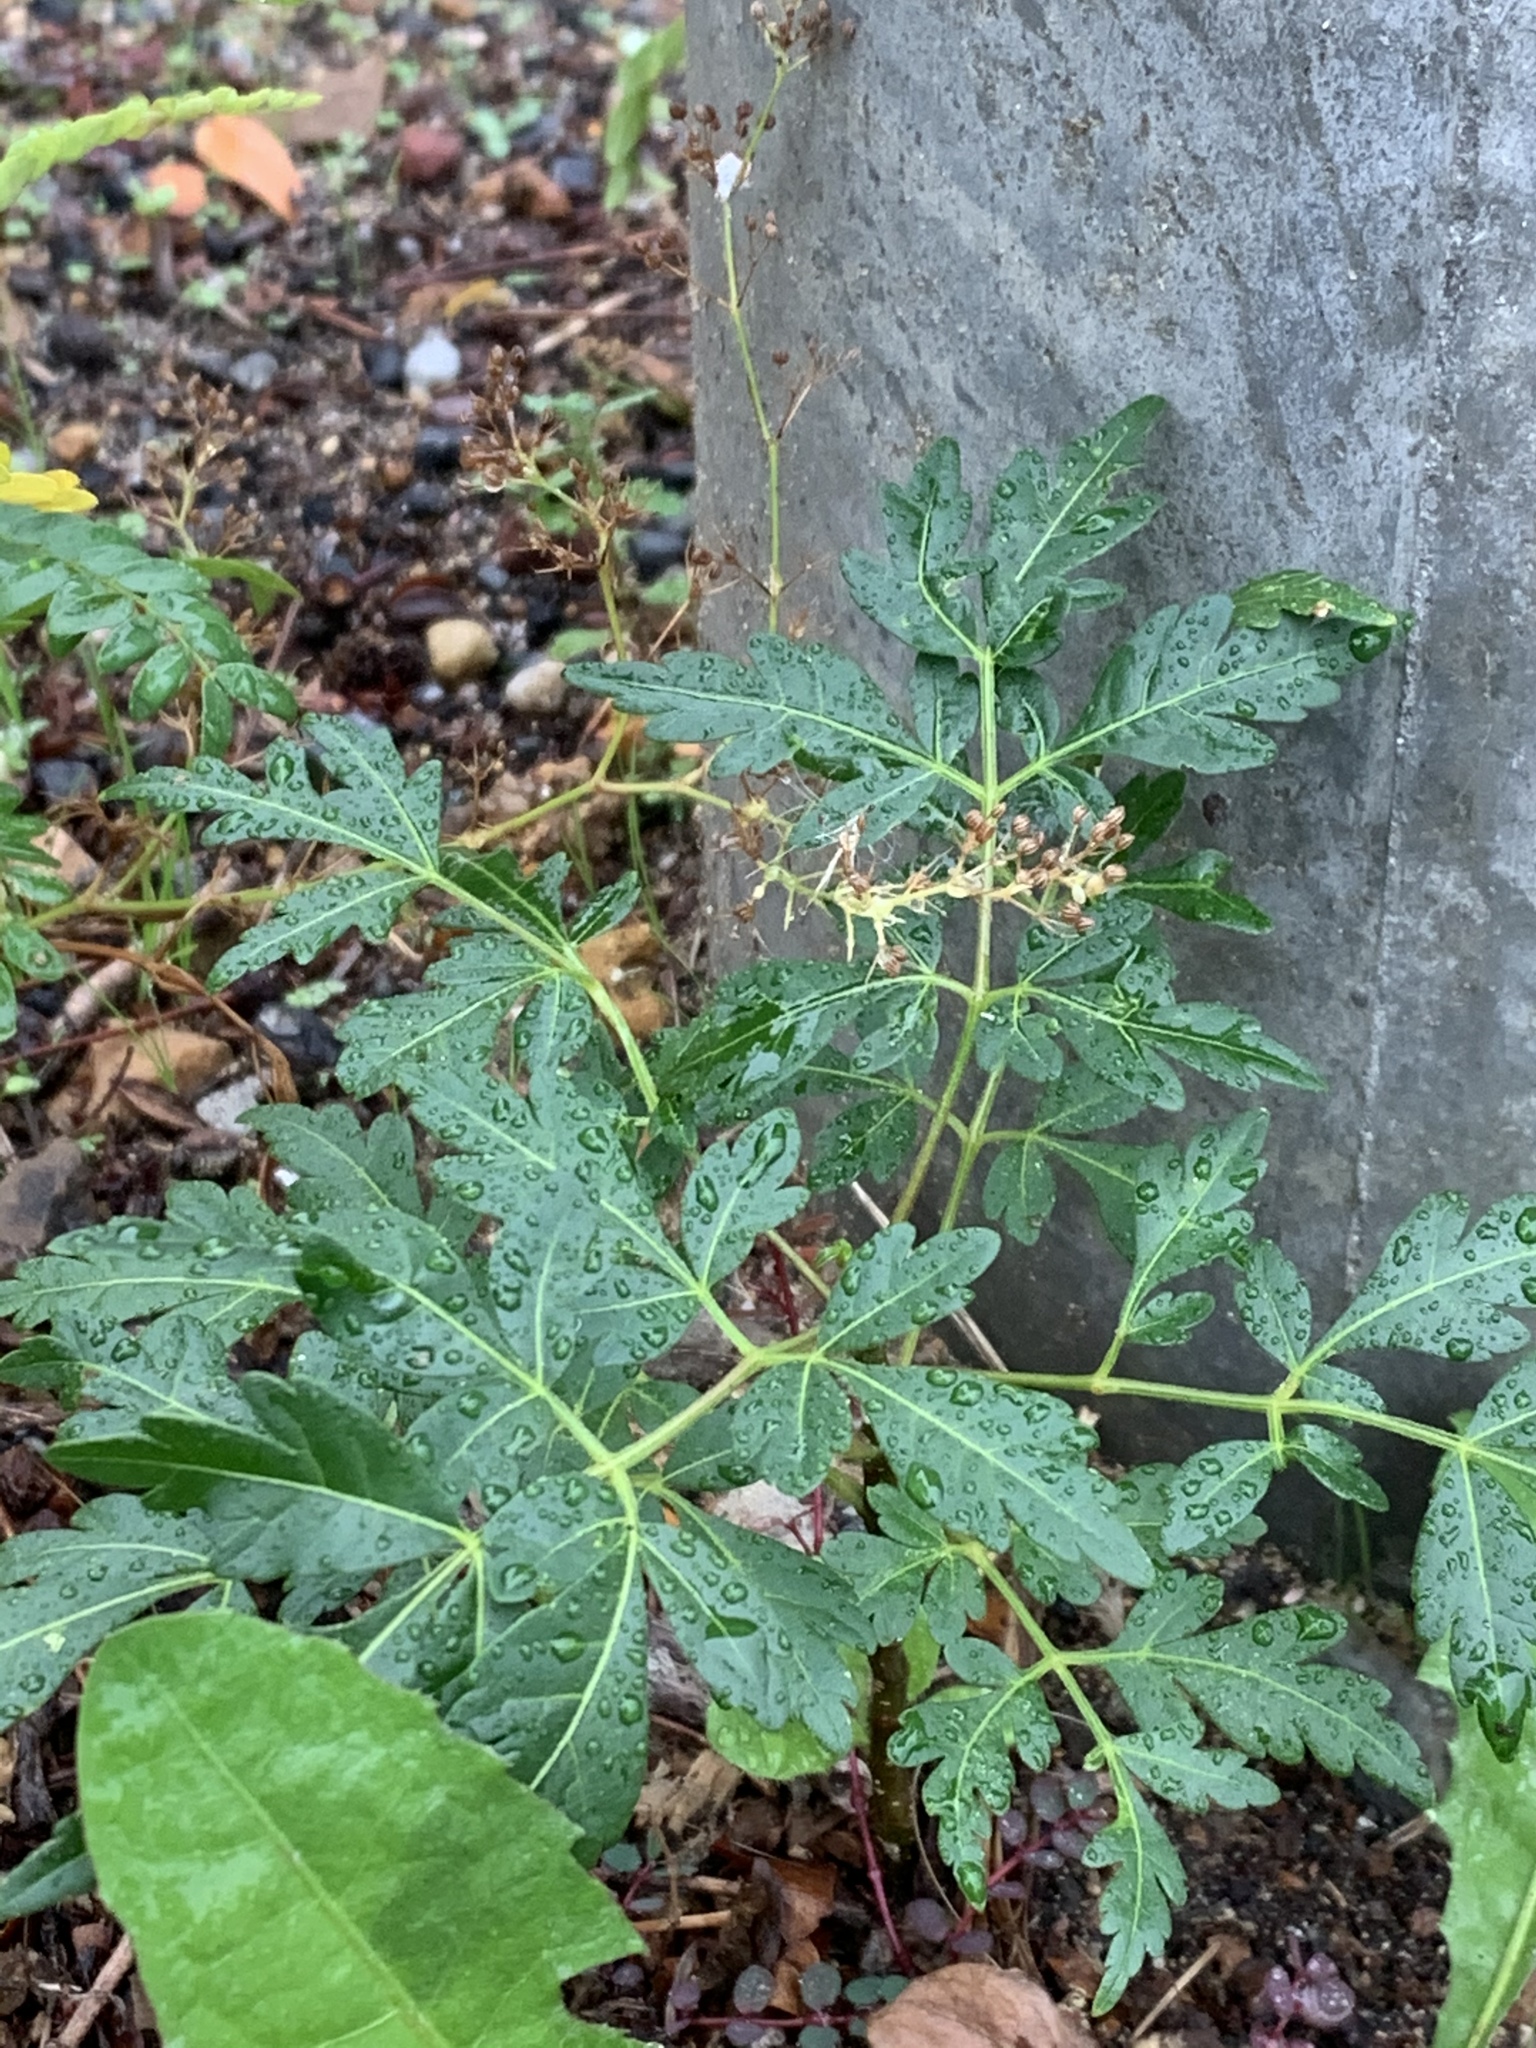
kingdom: Plantae
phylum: Tracheophyta
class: Magnoliopsida
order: Sapindales
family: Meliaceae
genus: Melia
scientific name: Melia azedarach
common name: Chinaberrytree
